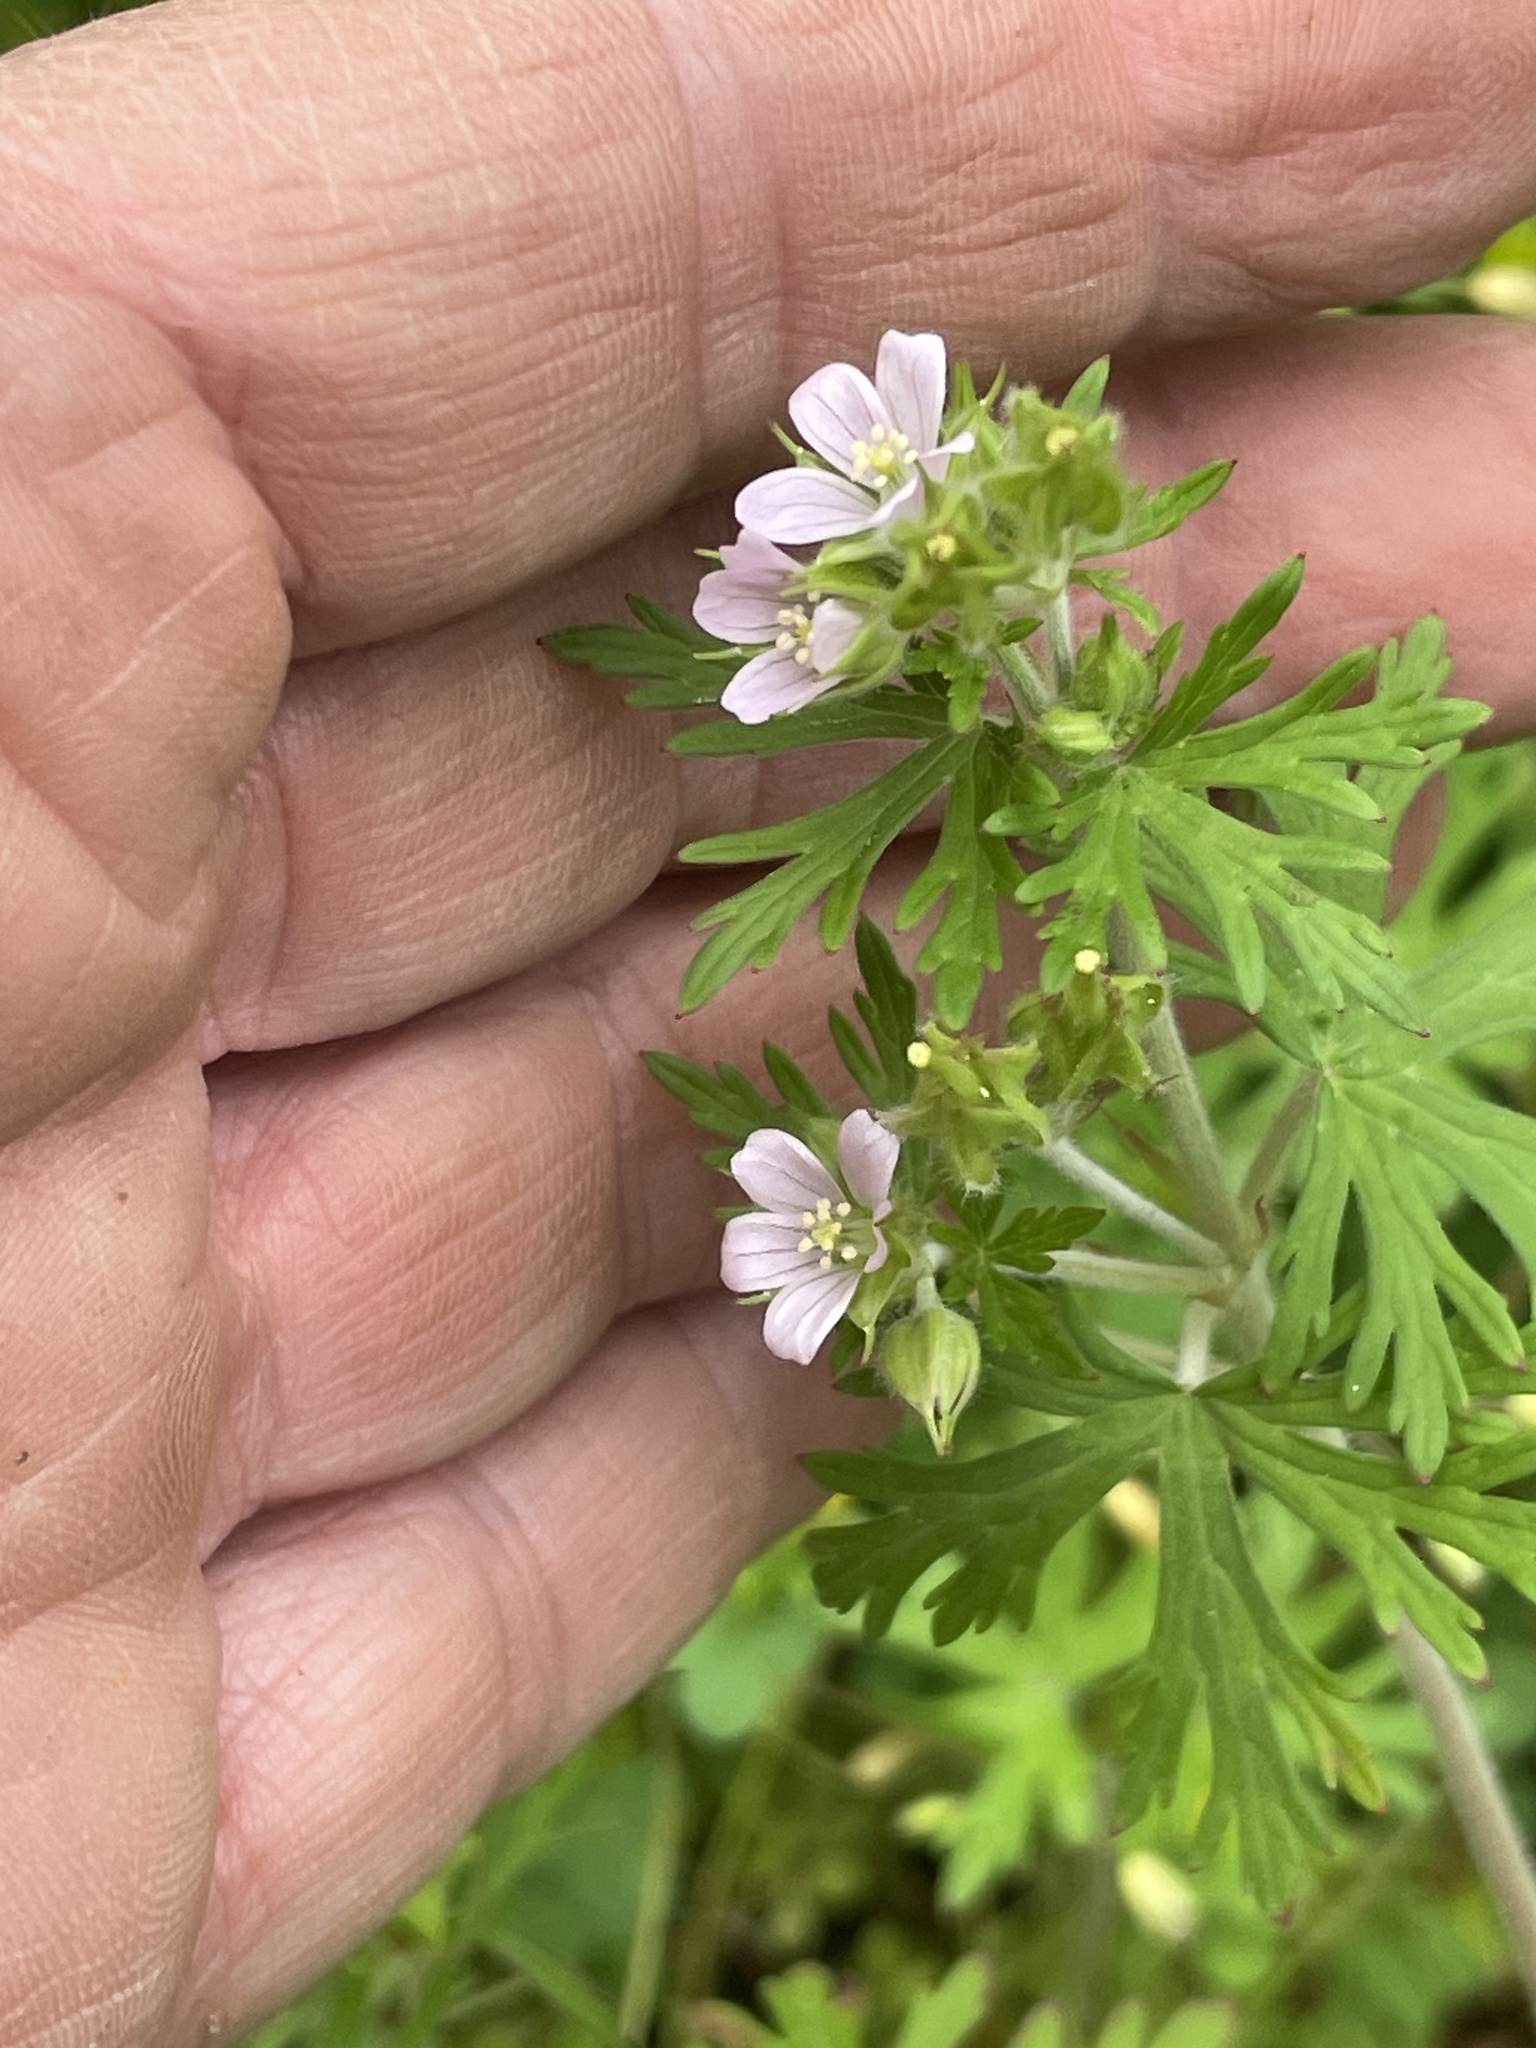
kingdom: Plantae
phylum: Tracheophyta
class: Magnoliopsida
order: Geraniales
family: Geraniaceae
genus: Geranium
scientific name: Geranium carolinianum
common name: Carolina crane's-bill
